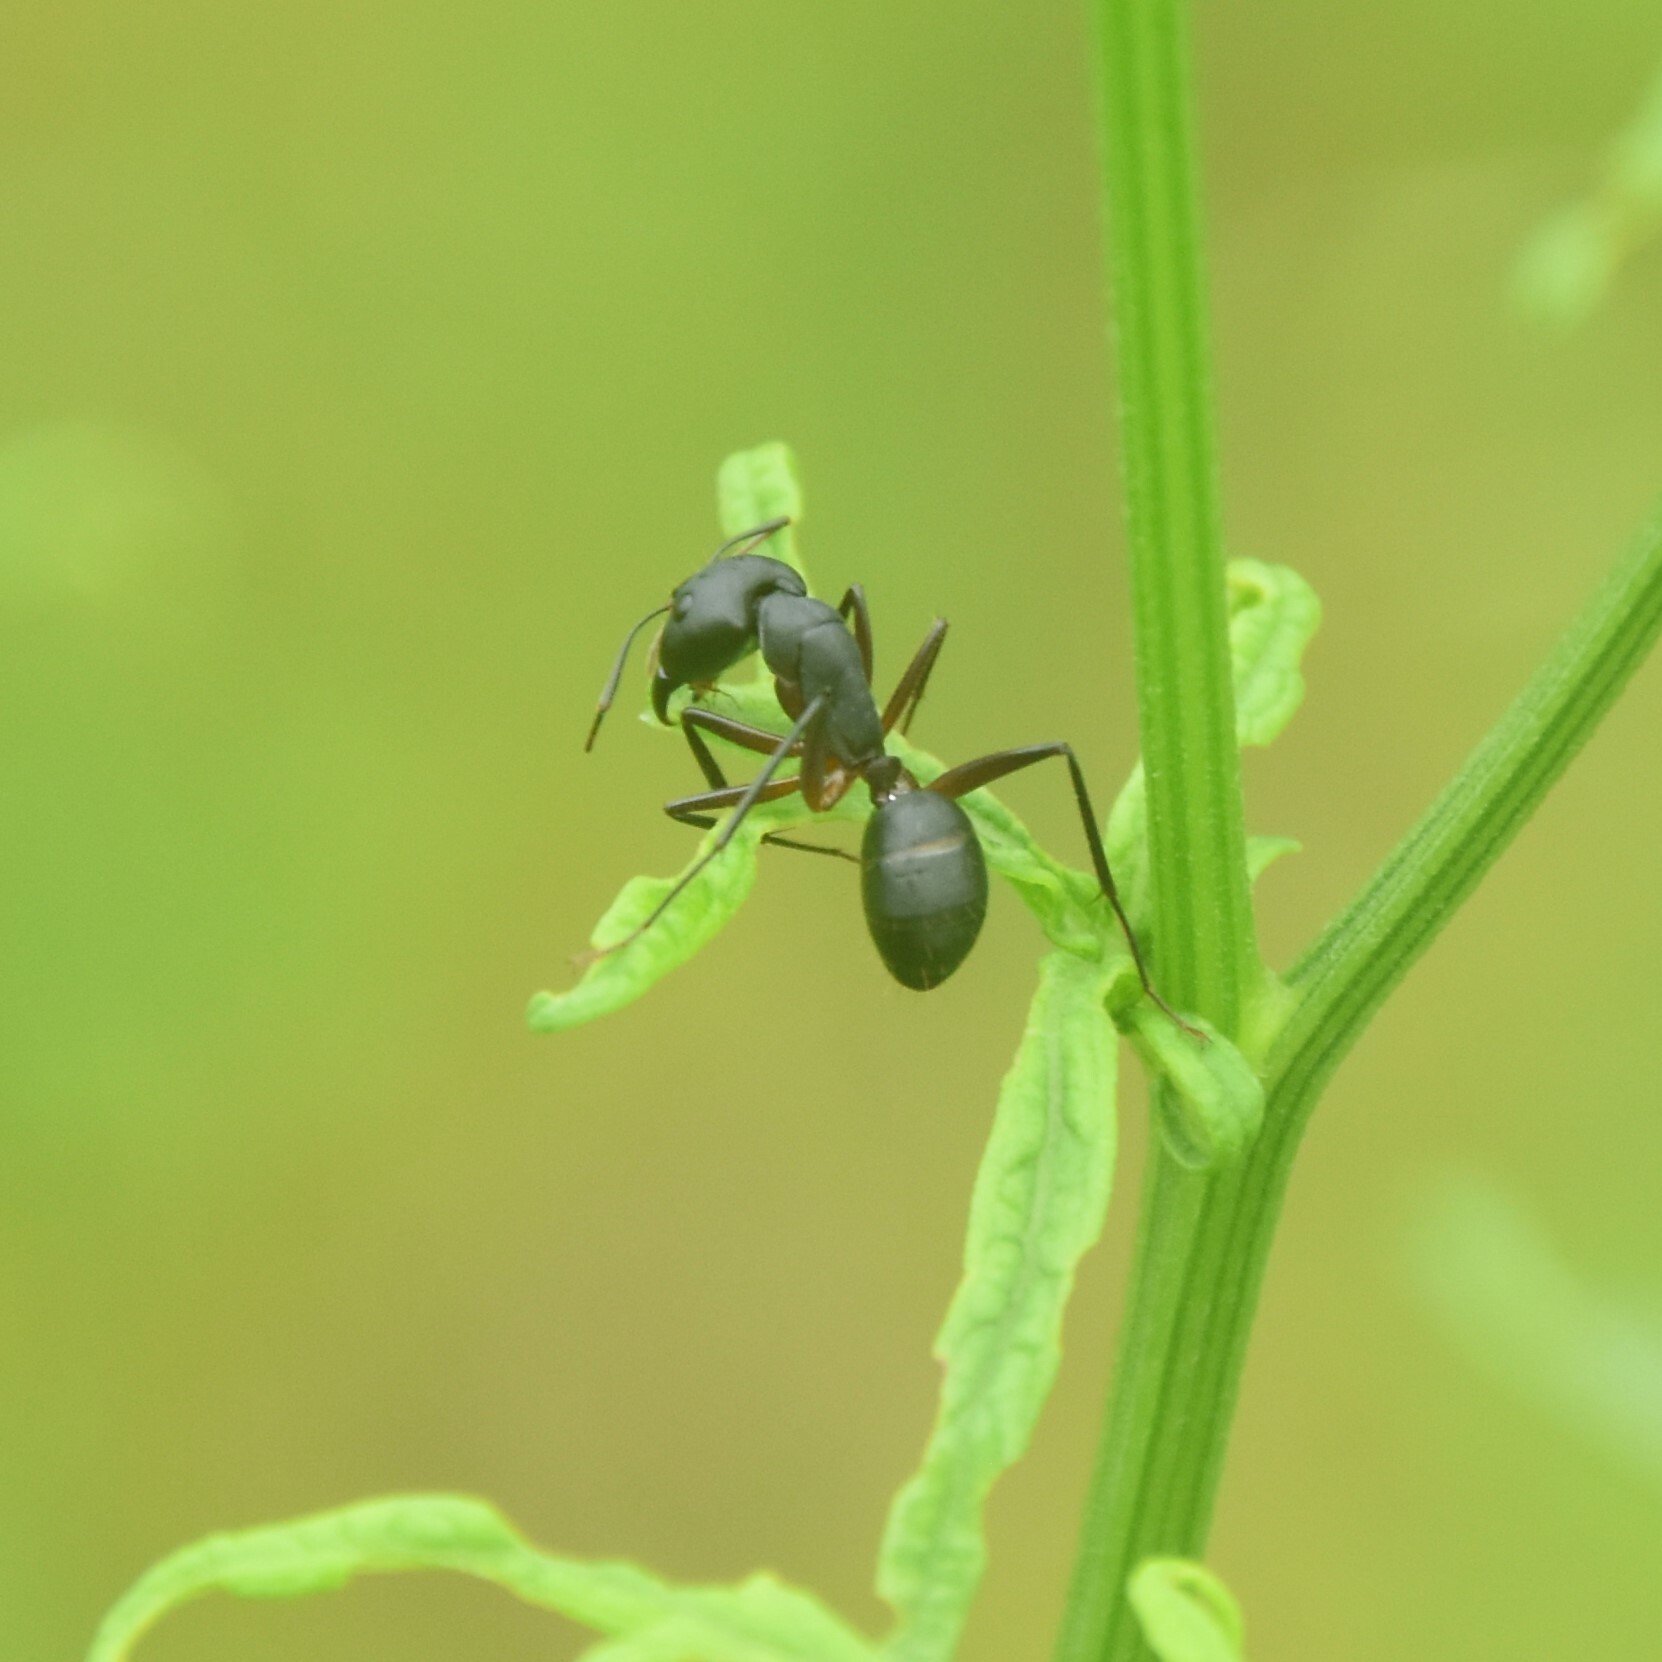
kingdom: Animalia
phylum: Arthropoda
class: Insecta
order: Hymenoptera
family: Formicidae
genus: Camponotus
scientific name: Camponotus compressus
